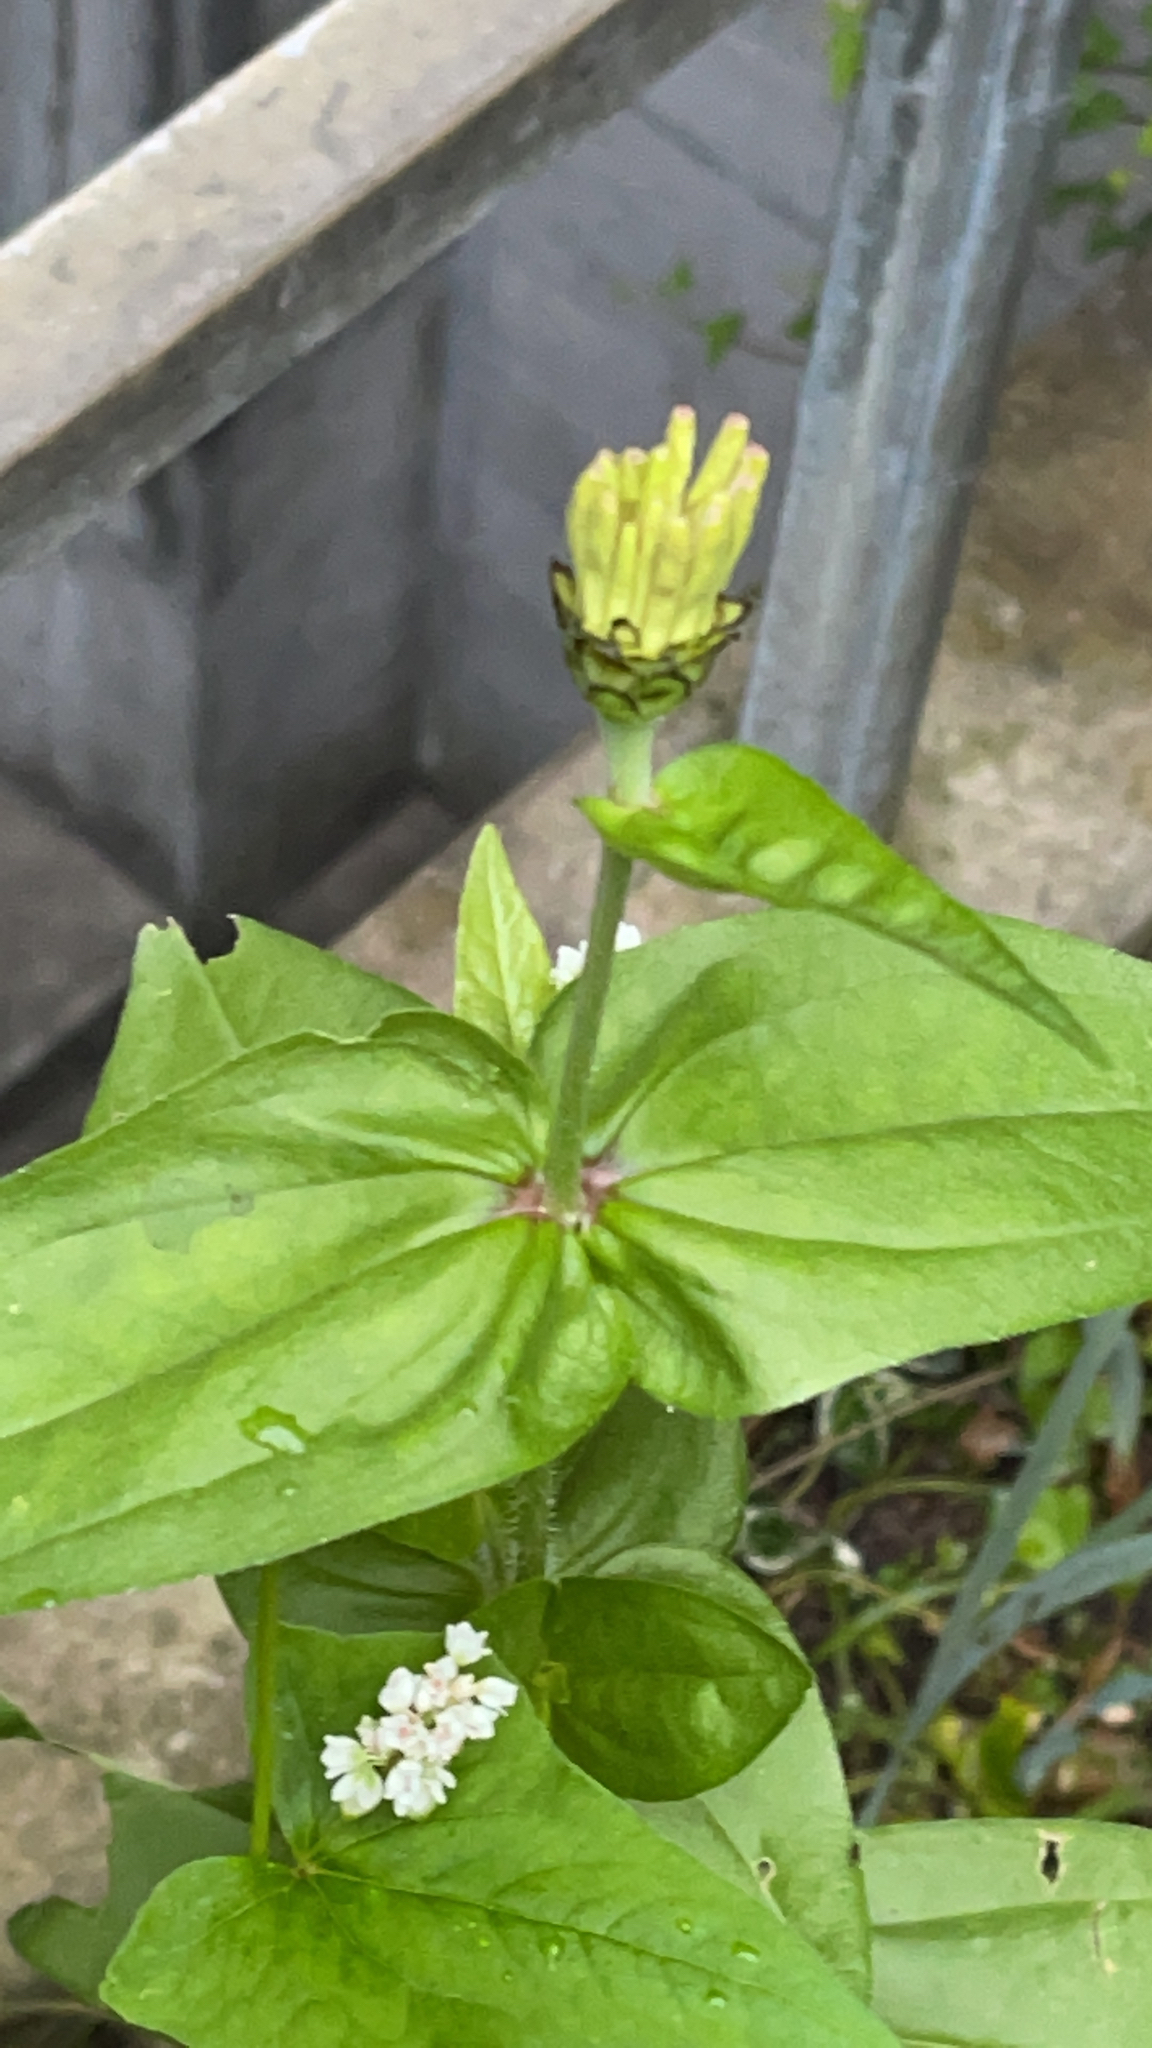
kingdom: Plantae
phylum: Tracheophyta
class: Magnoliopsida
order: Asterales
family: Asteraceae
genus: Zinnia
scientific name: Zinnia elegans
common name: Youth-and-age
